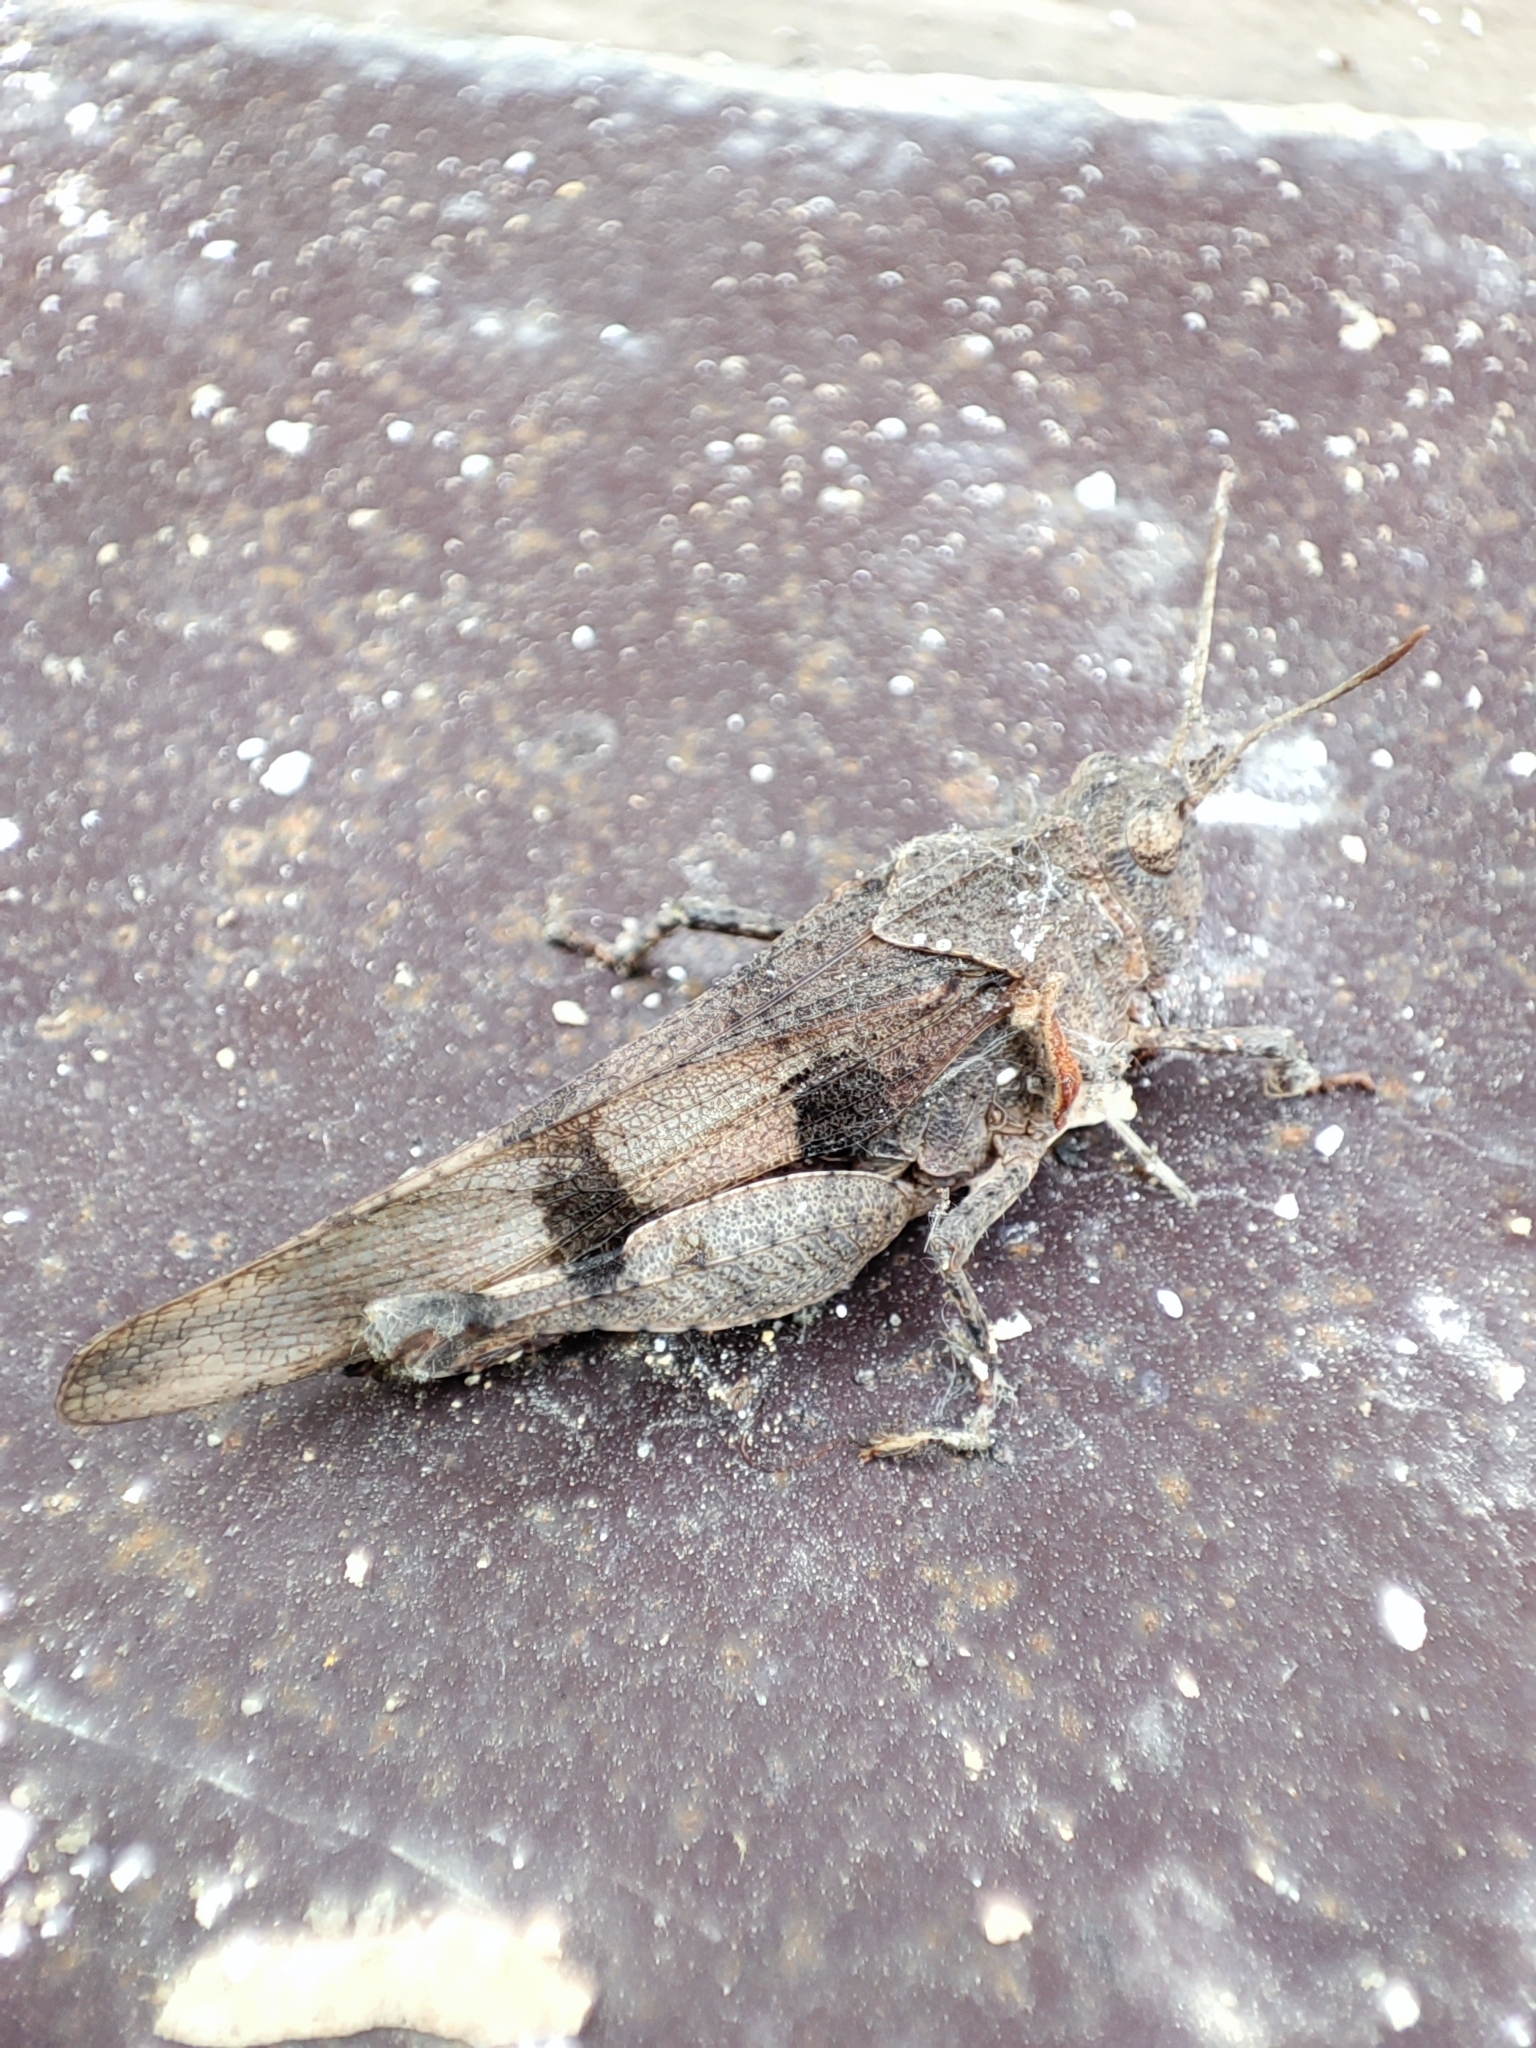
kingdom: Animalia
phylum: Arthropoda
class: Insecta
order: Orthoptera
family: Acrididae
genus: Oedipoda
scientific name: Oedipoda caerulescens
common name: Blue-winged grasshopper
